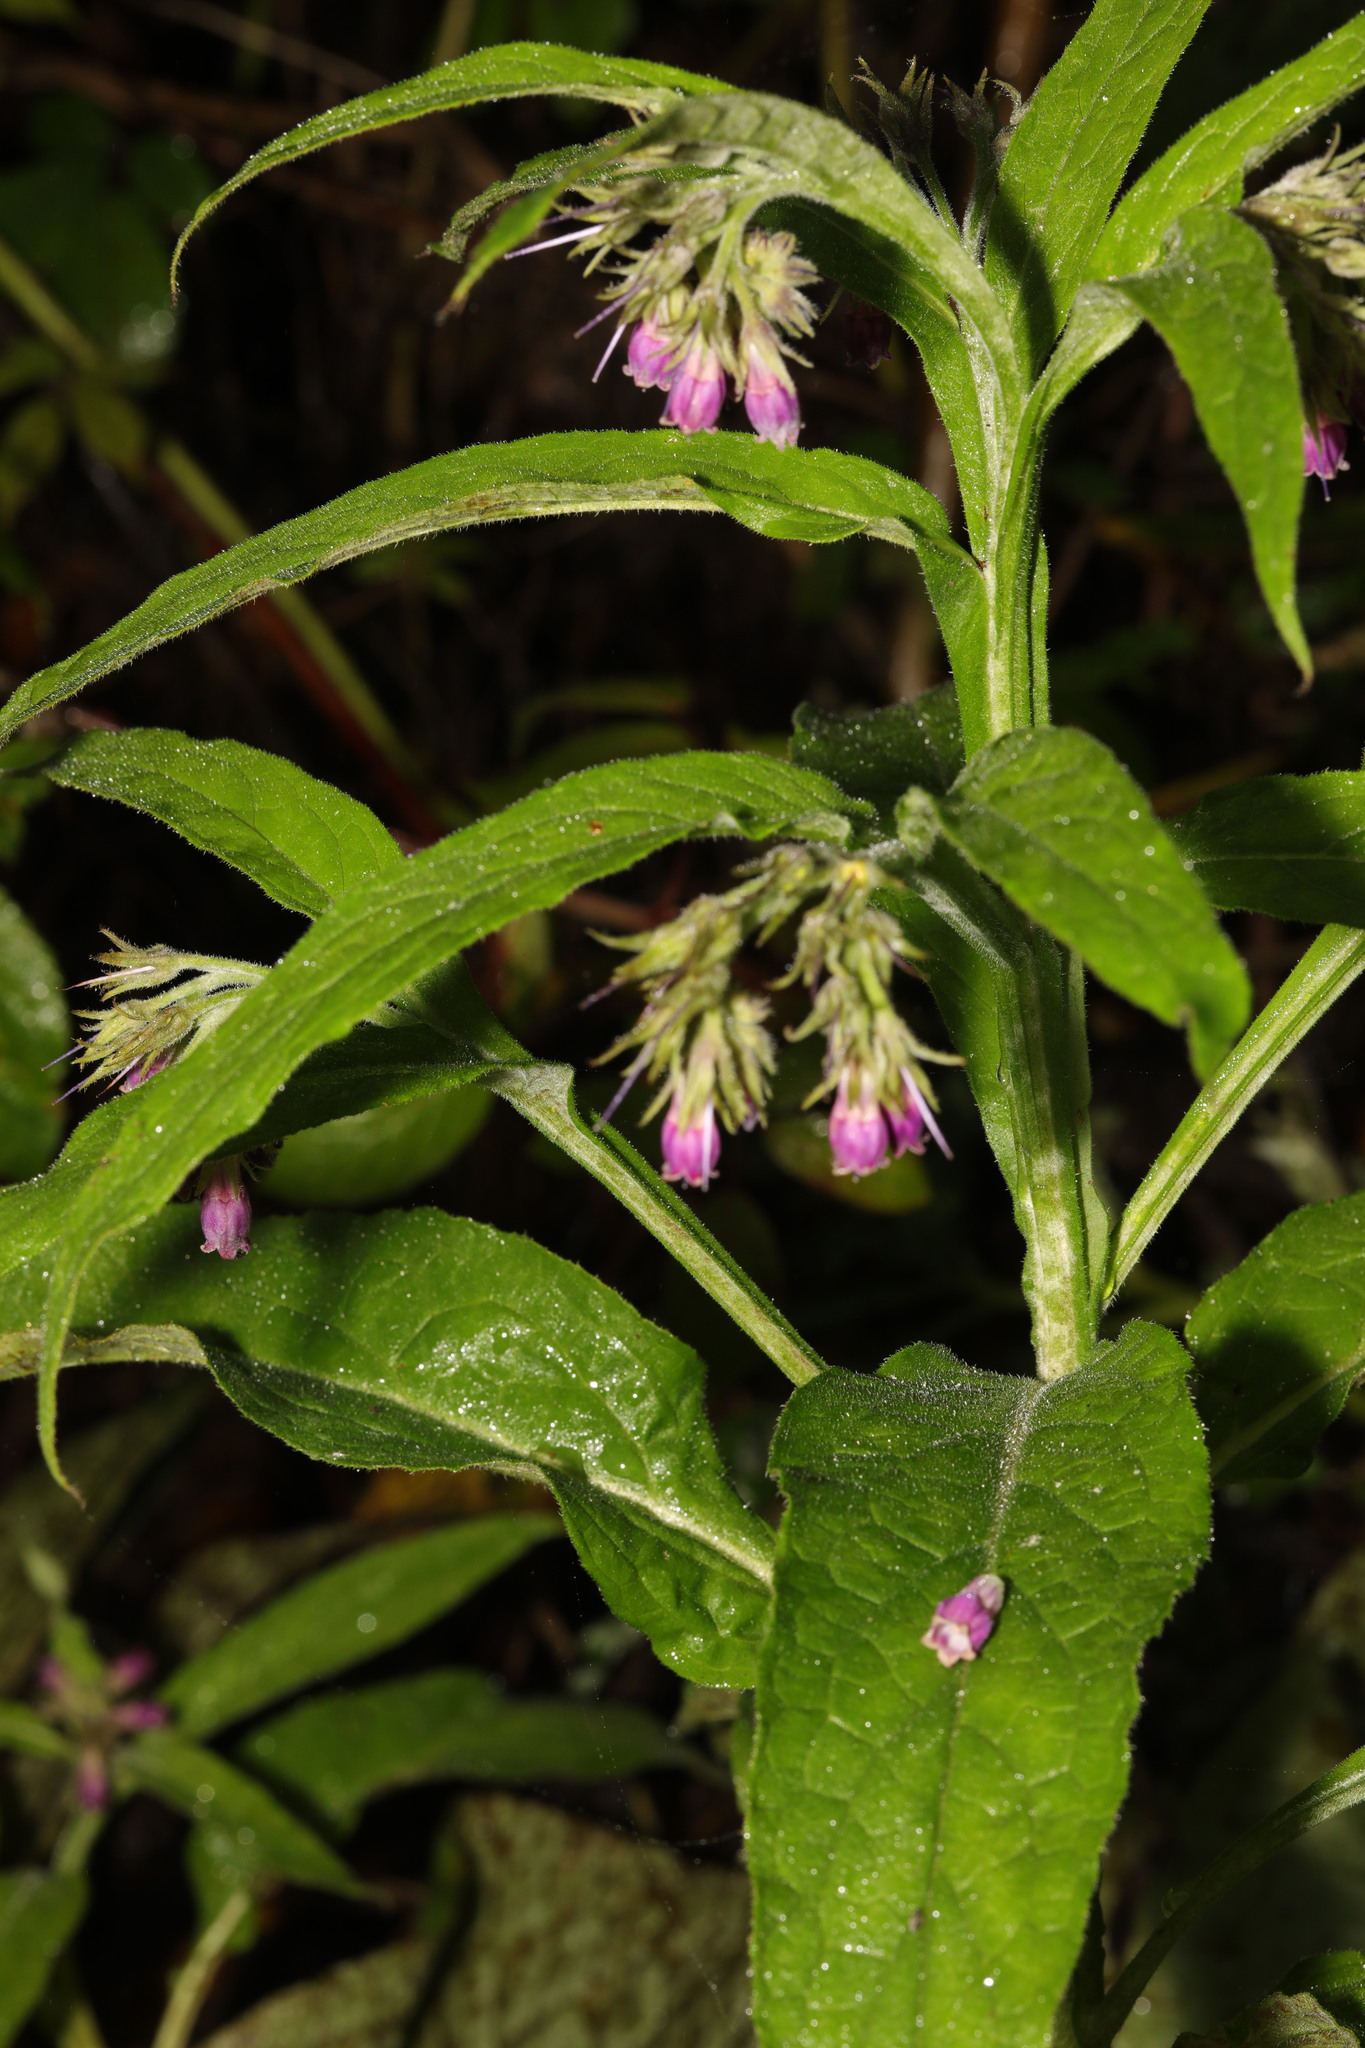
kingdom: Plantae
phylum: Tracheophyta
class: Magnoliopsida
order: Boraginales
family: Boraginaceae
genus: Symphytum
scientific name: Symphytum officinale
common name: Common comfrey
